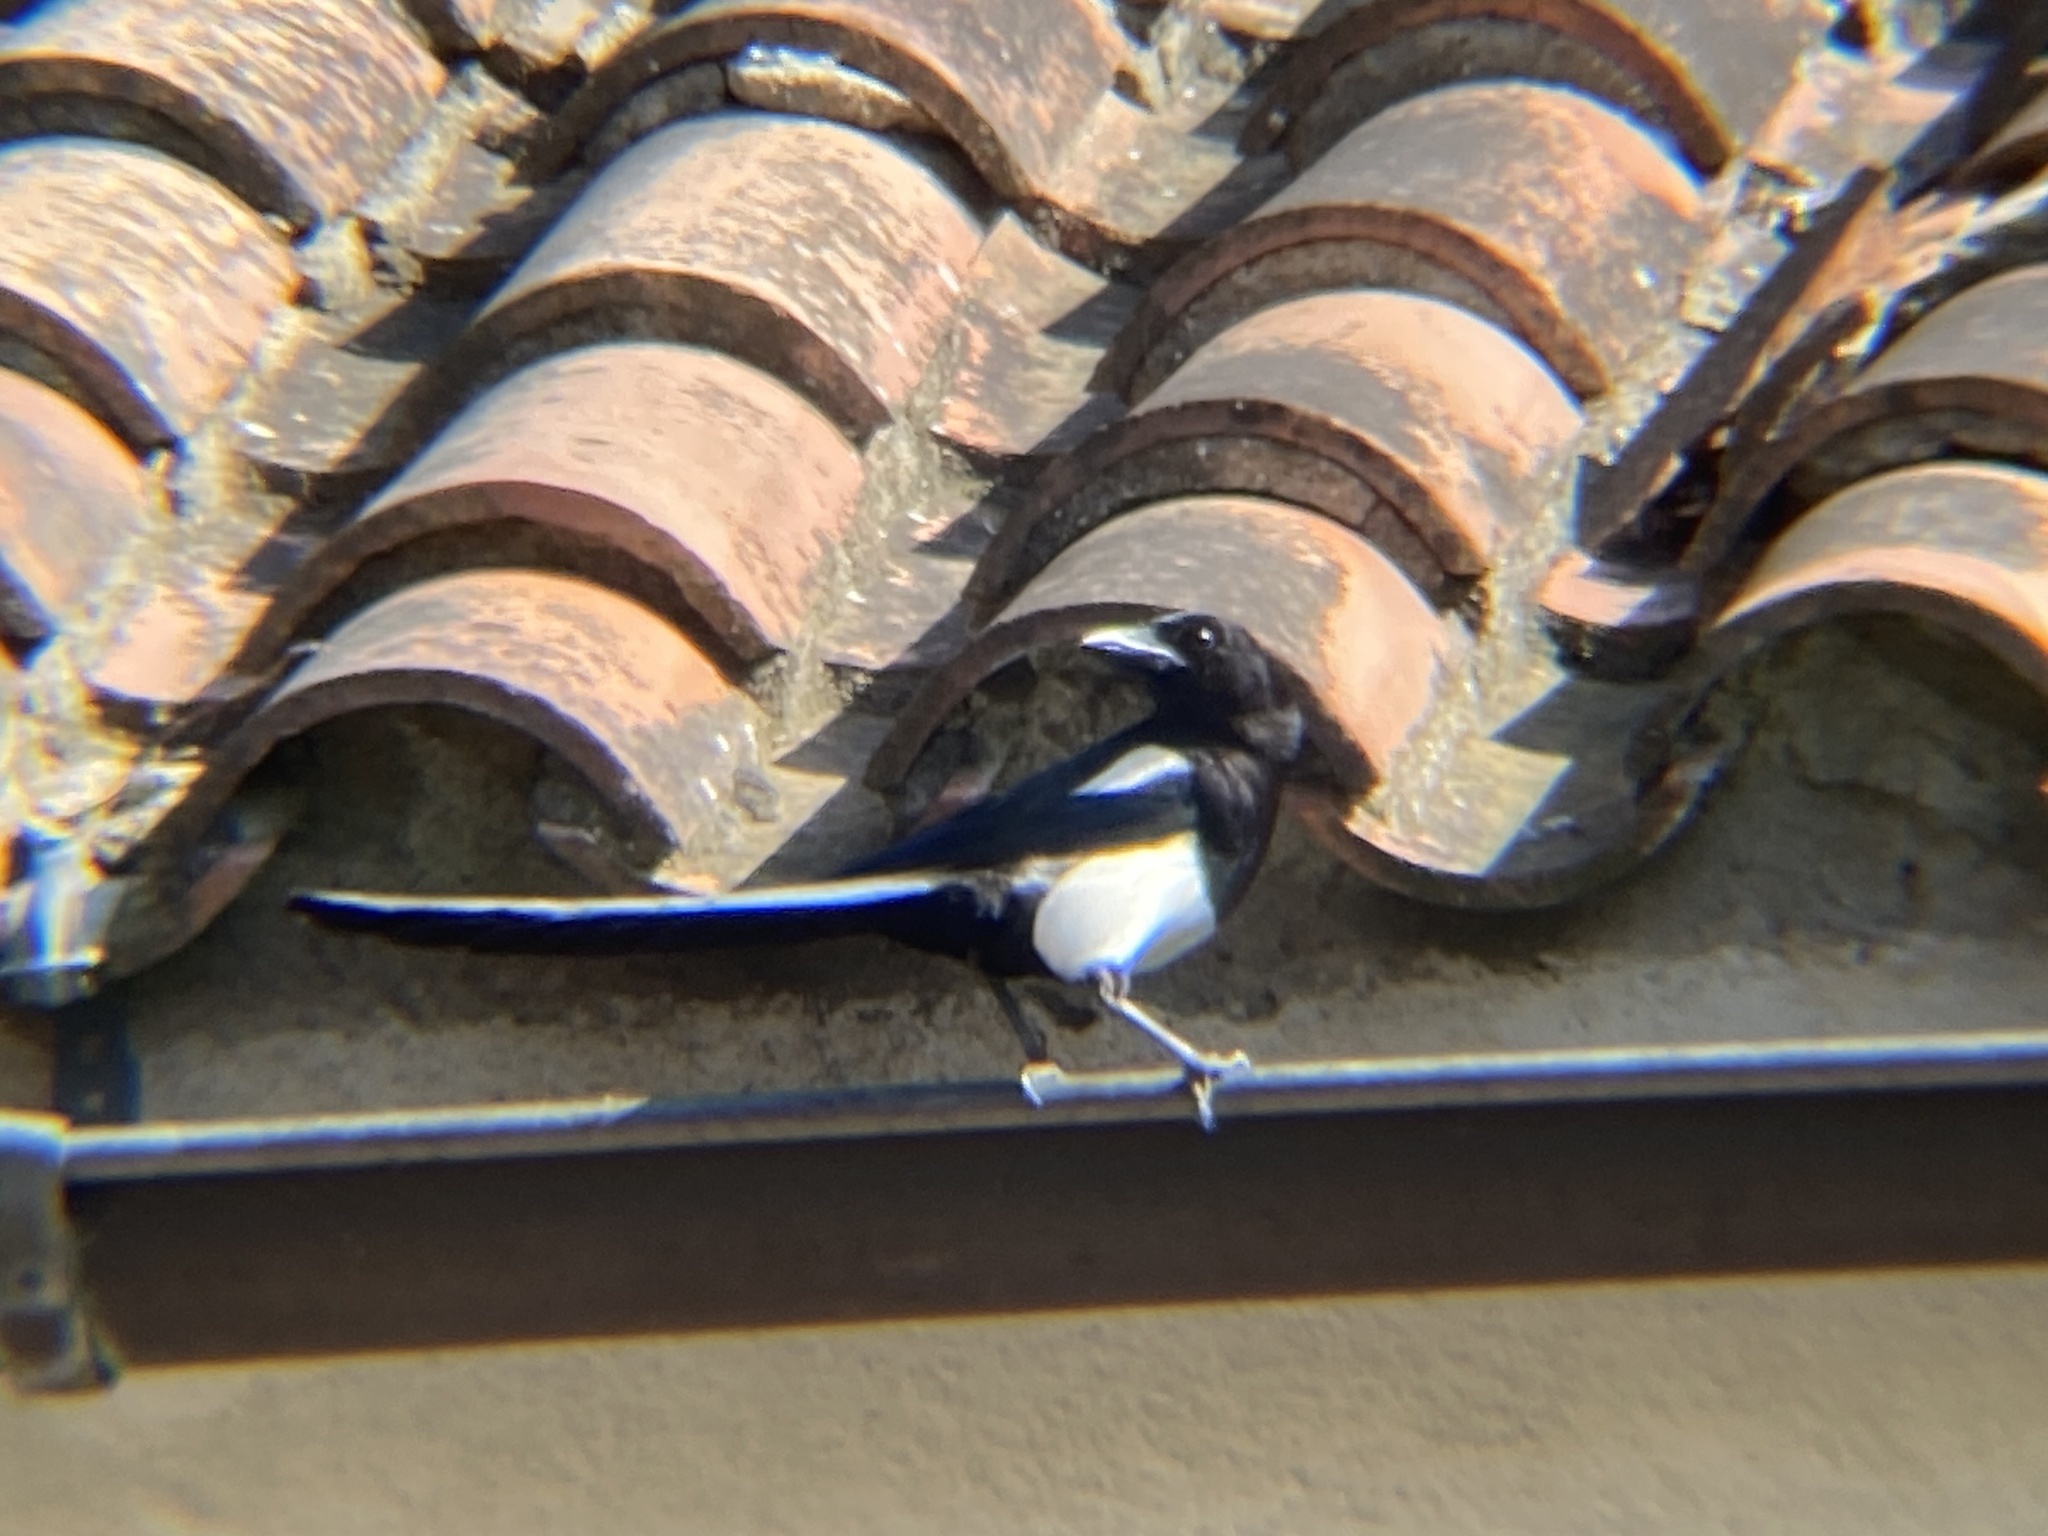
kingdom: Animalia
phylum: Chordata
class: Aves
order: Passeriformes
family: Corvidae
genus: Pica
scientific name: Pica pica
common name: Eurasian magpie
